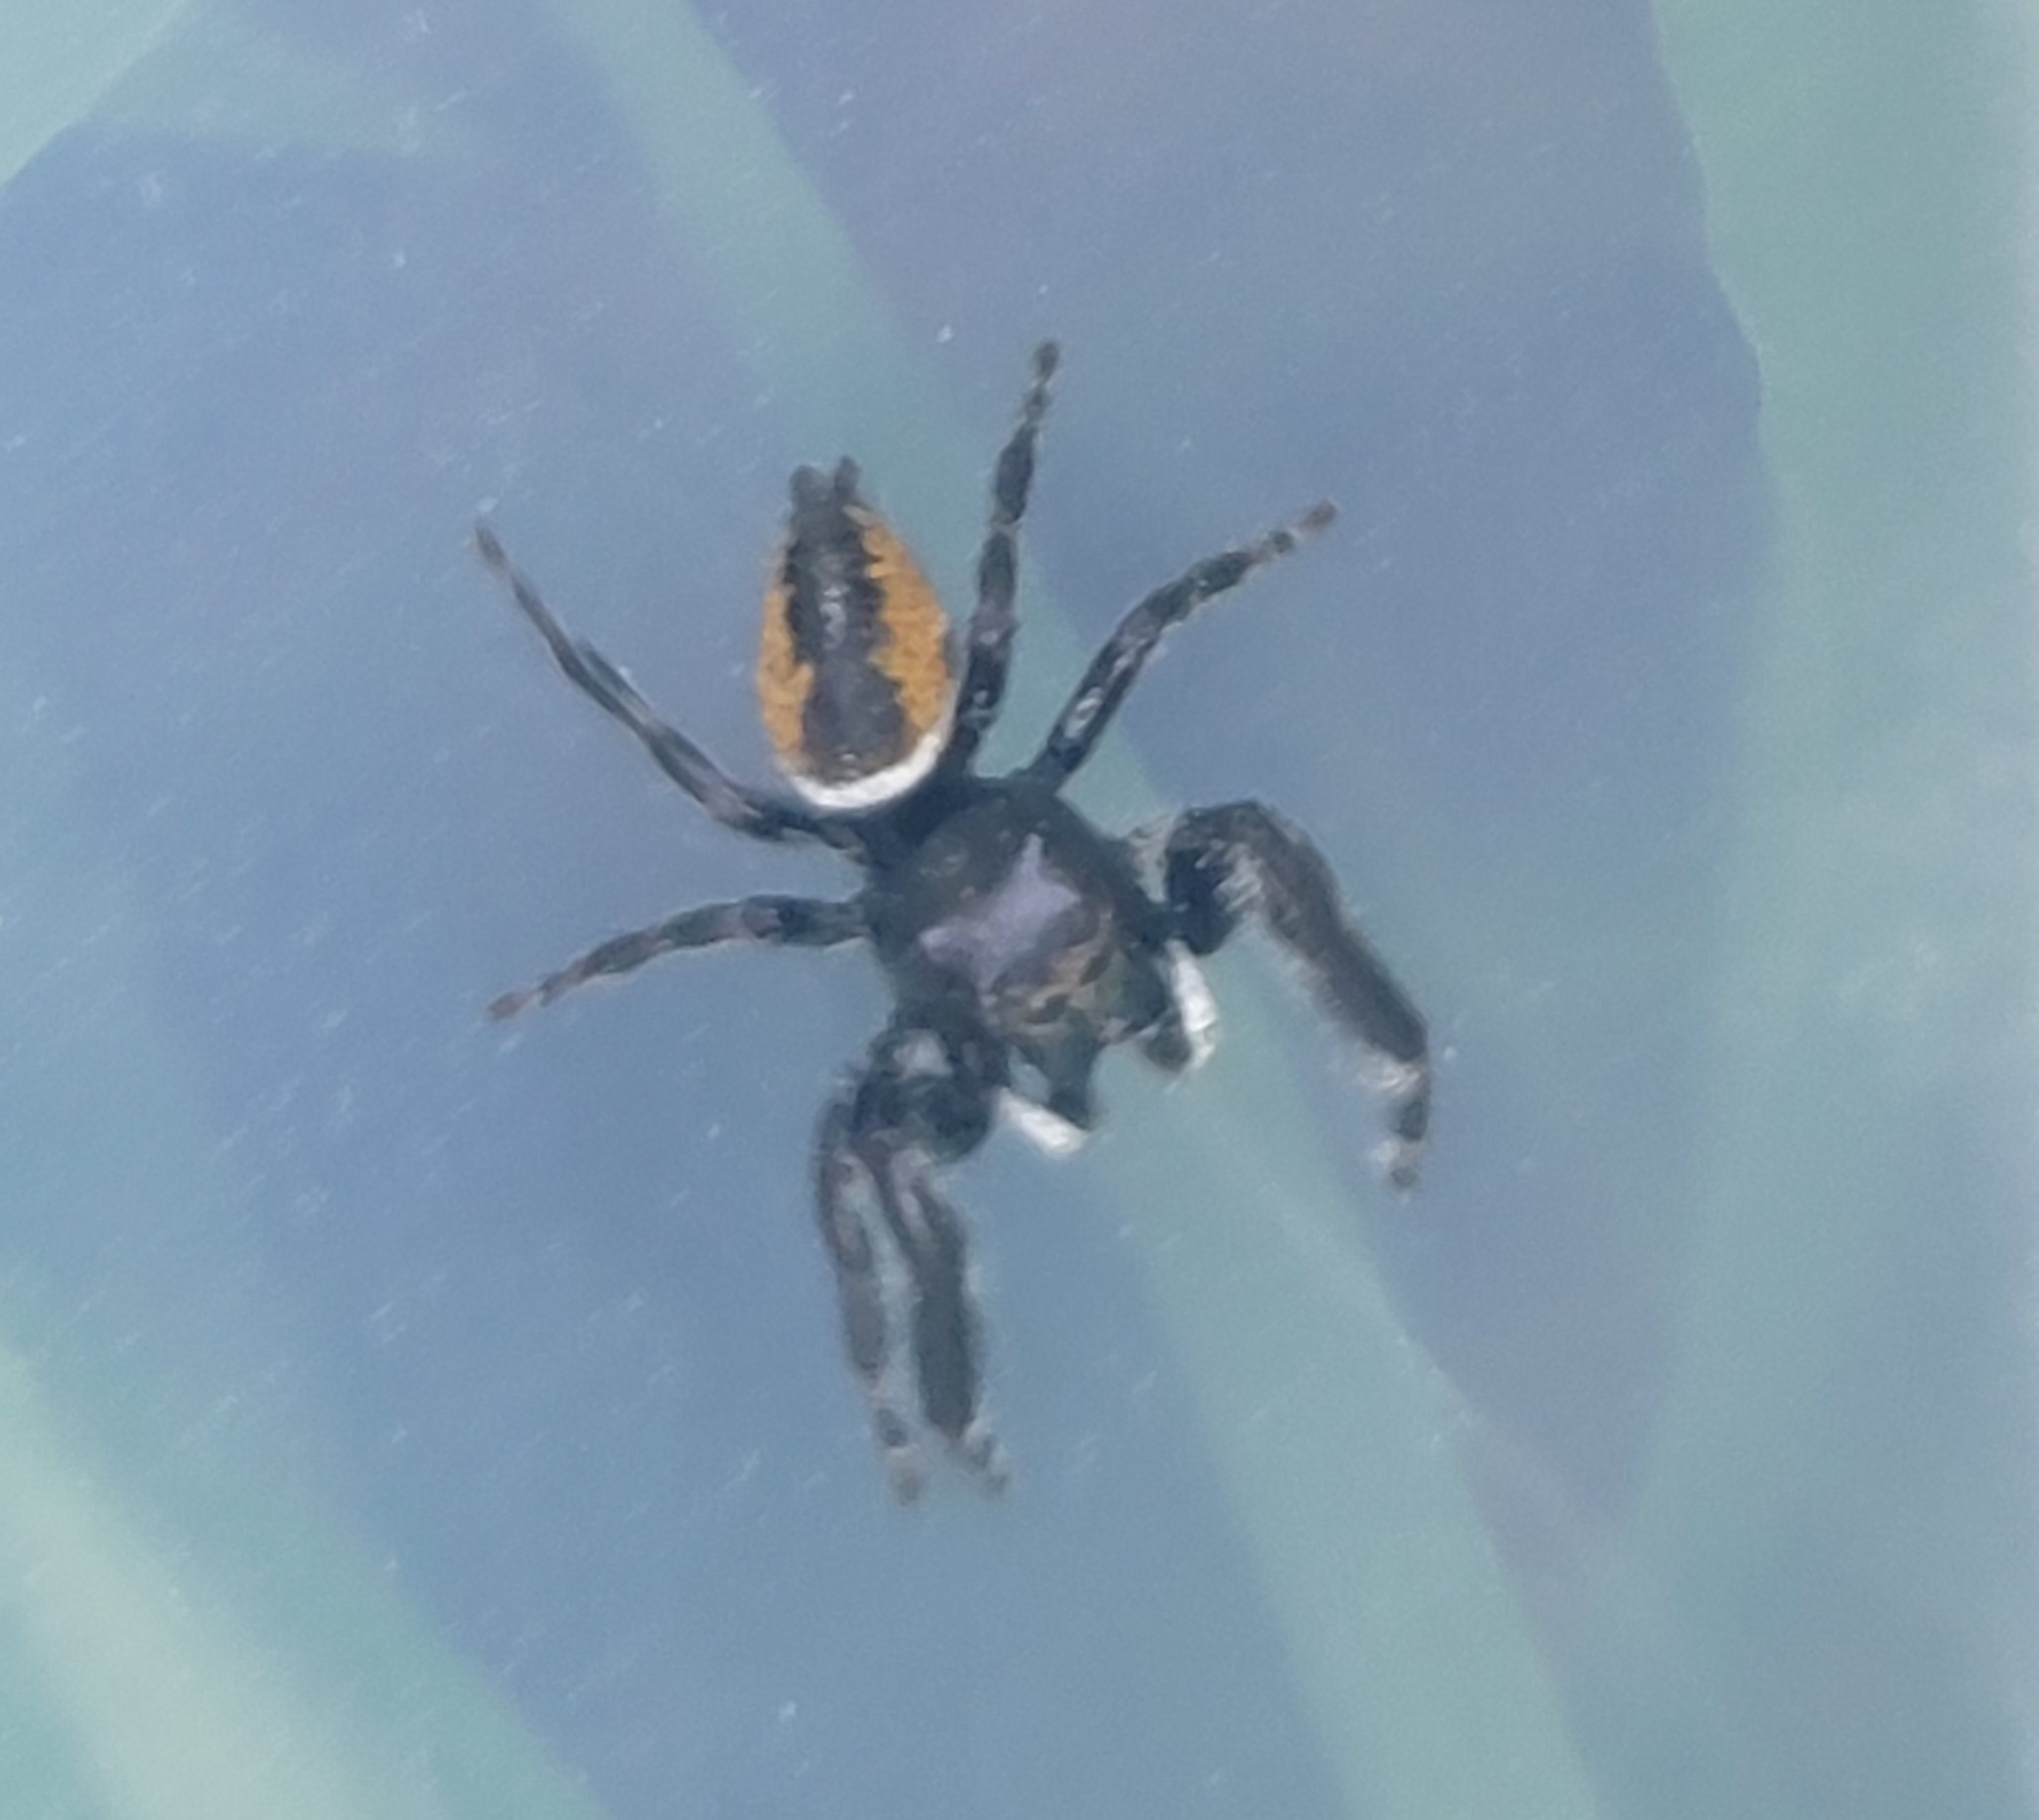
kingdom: Animalia
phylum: Arthropoda
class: Arachnida
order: Araneae
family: Salticidae
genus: Phidippus
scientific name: Phidippus clarus
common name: Brilliant jumping spider
